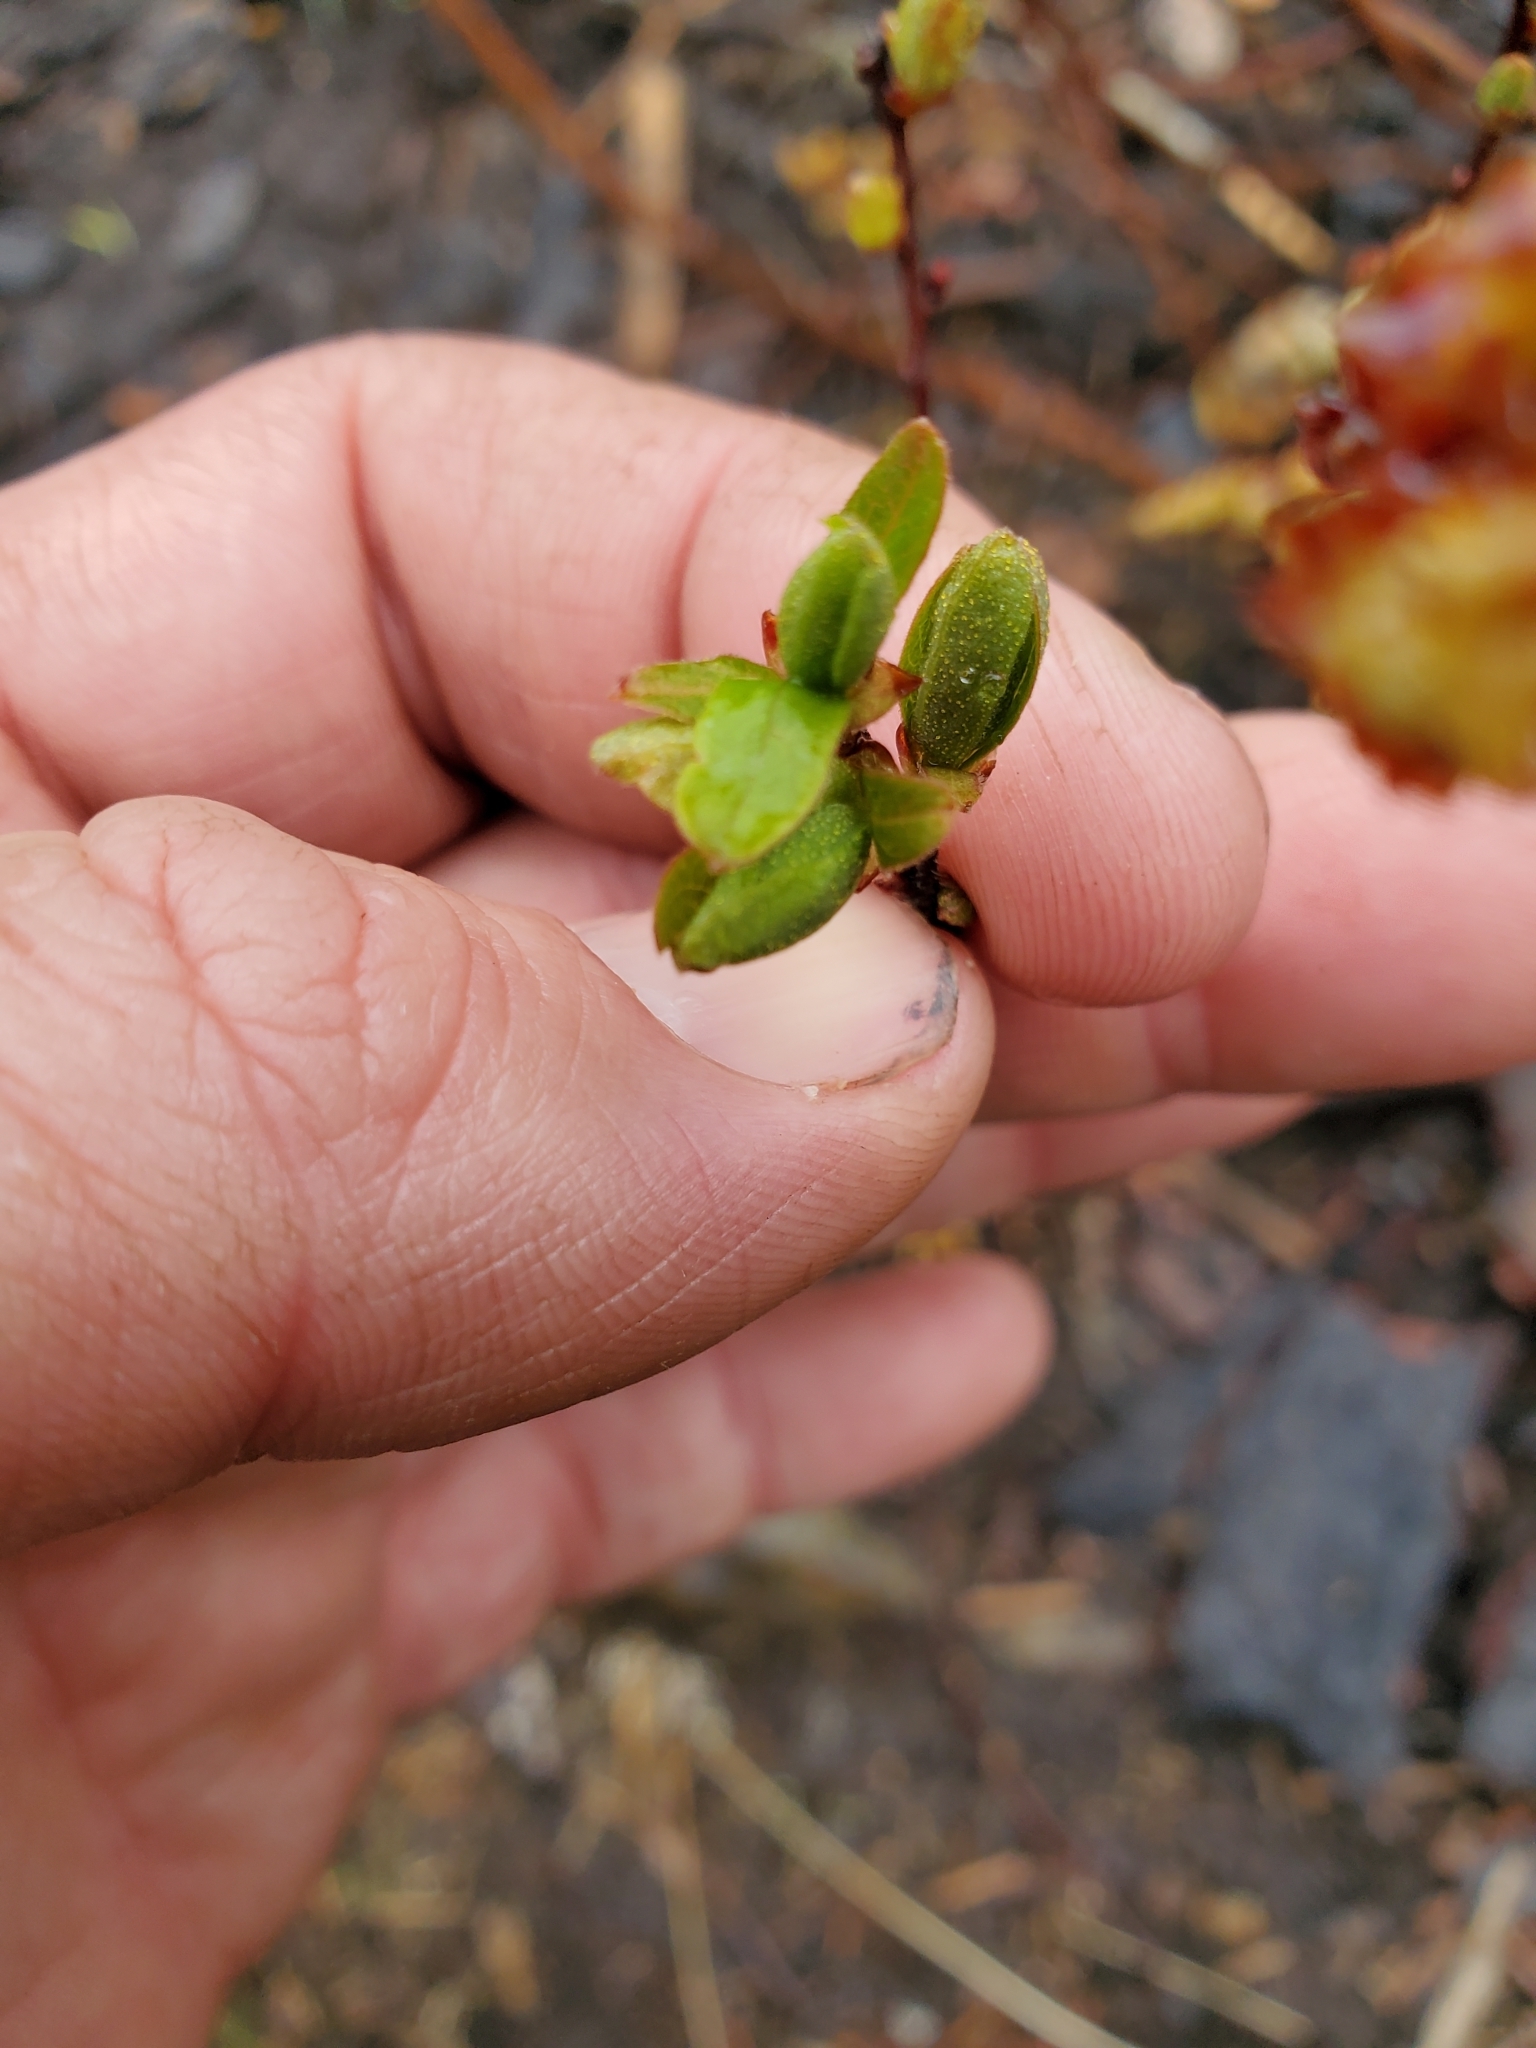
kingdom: Plantae
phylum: Tracheophyta
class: Magnoliopsida
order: Fagales
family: Myricaceae
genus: Myrica
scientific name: Myrica gale
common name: Sweet gale
